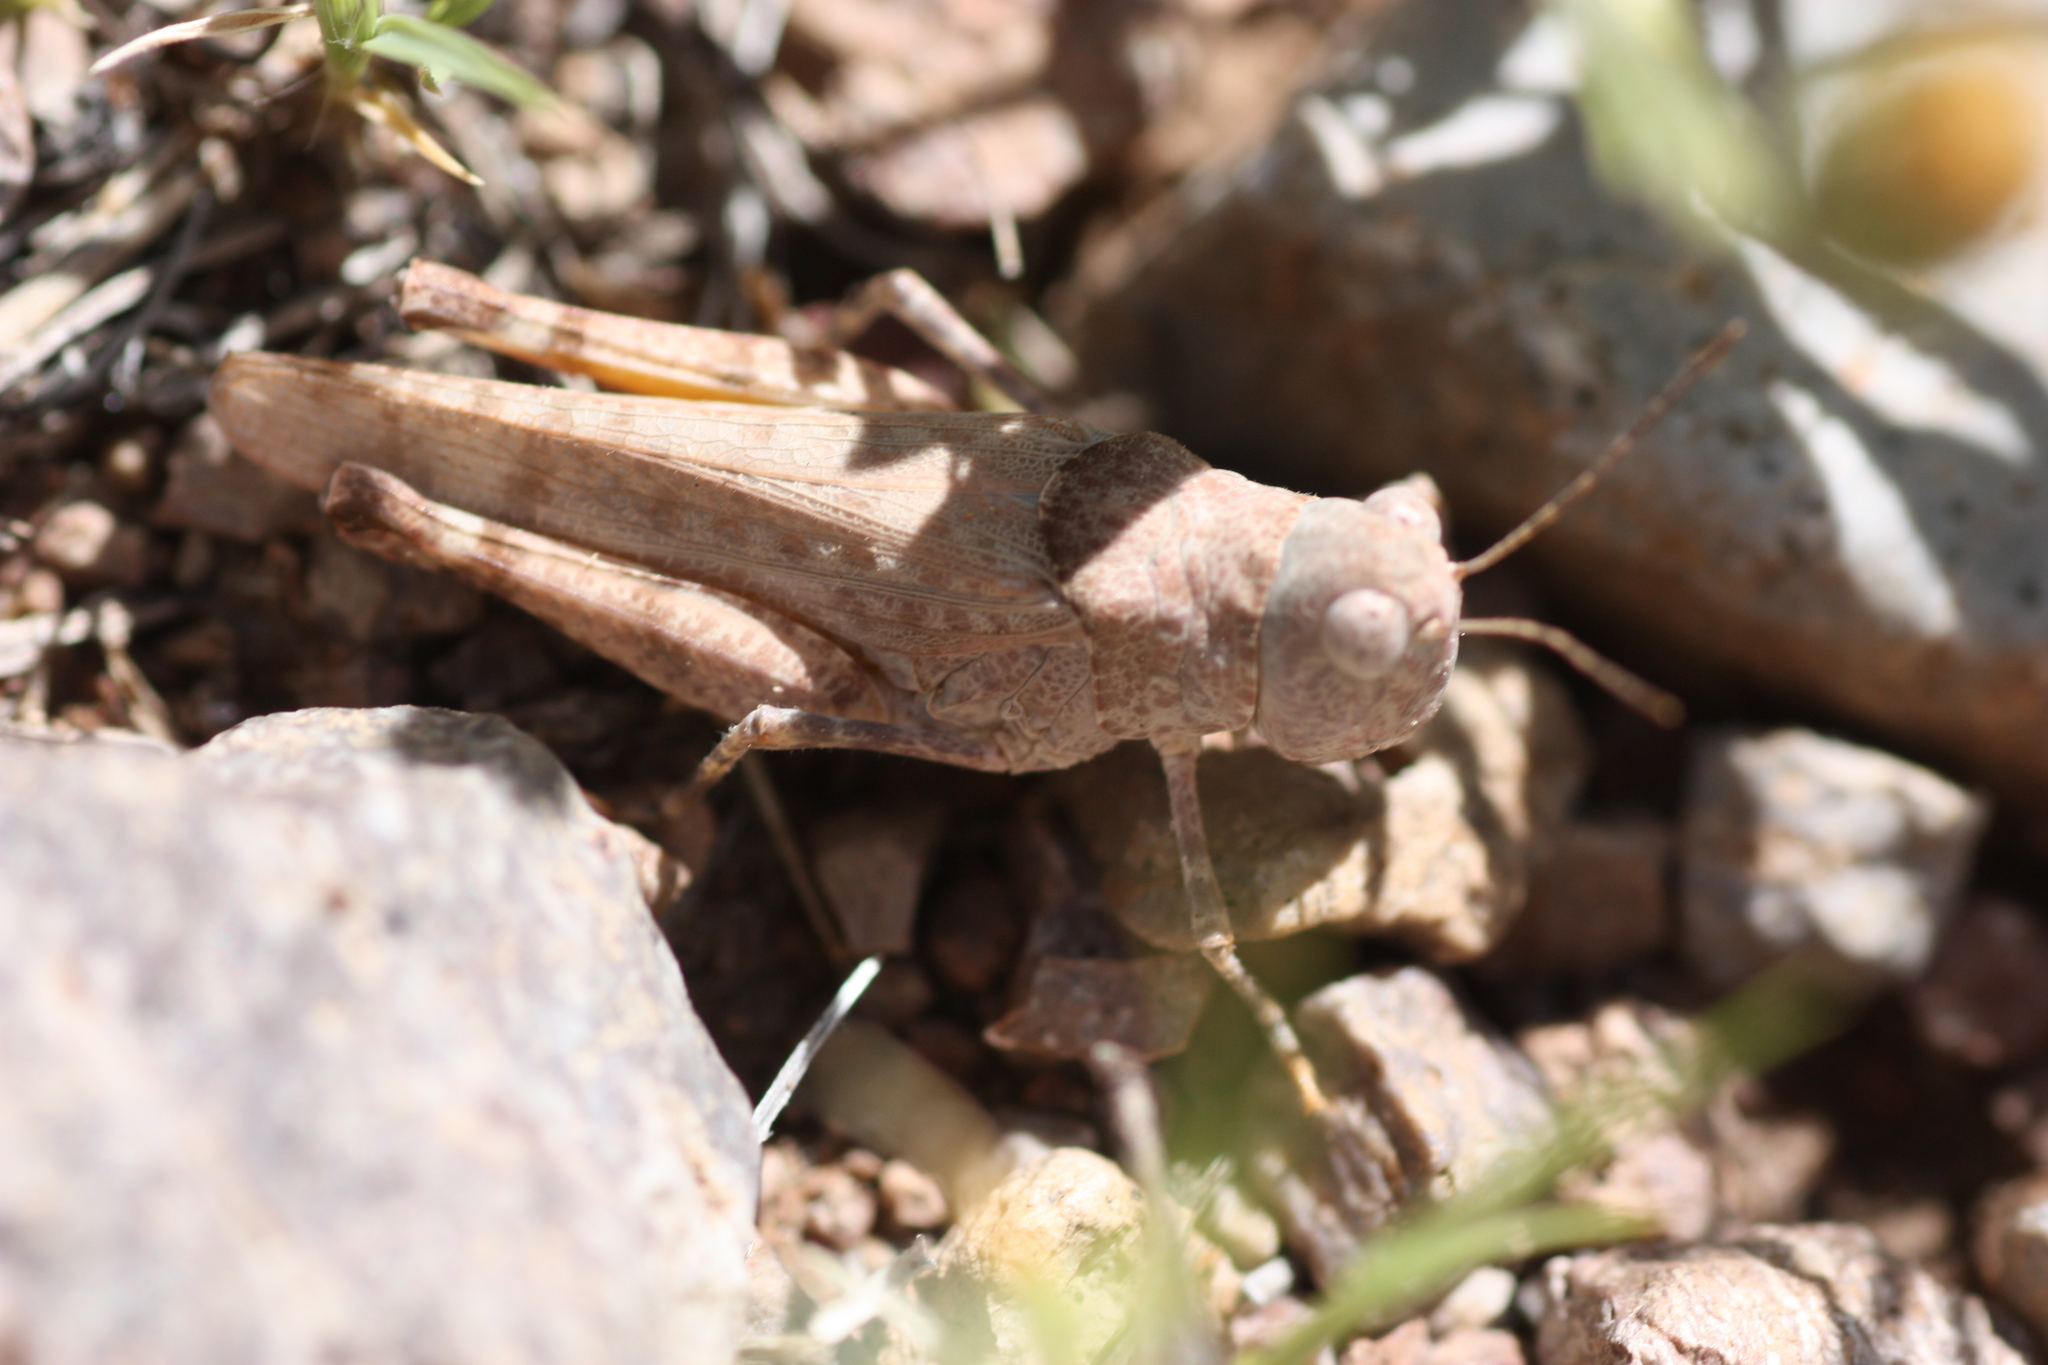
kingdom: Animalia
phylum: Arthropoda
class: Insecta
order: Orthoptera
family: Acrididae
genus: Heliaula
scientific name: Heliaula rufa
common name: Rufous grasshopper
